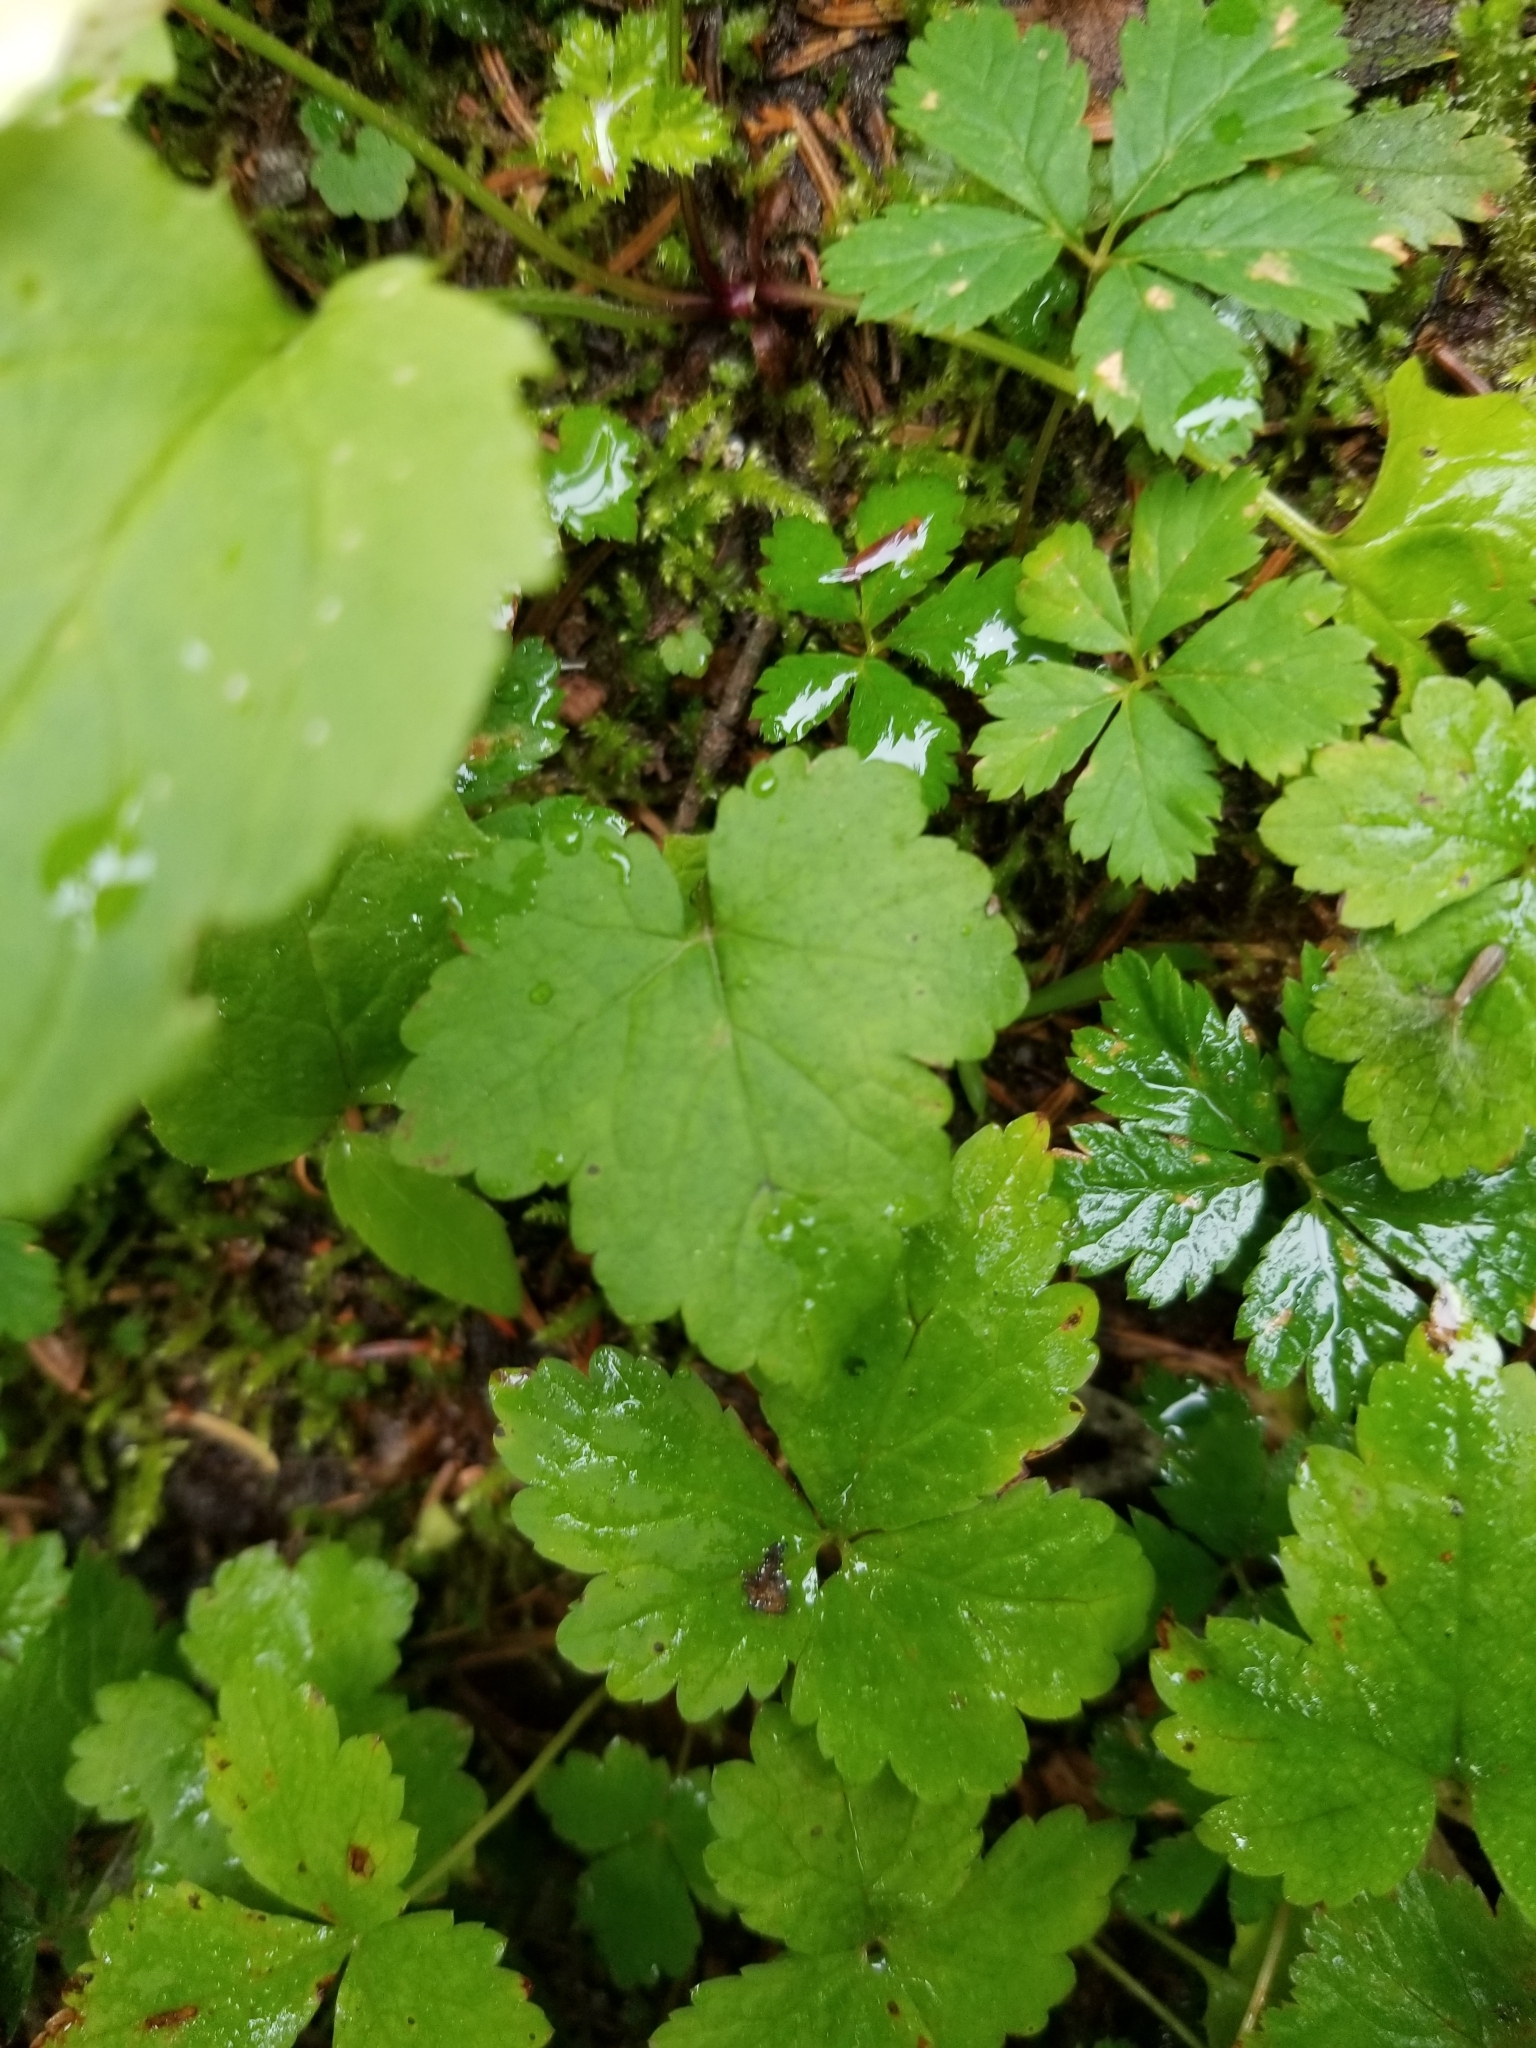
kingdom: Plantae
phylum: Tracheophyta
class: Magnoliopsida
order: Saxifragales
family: Saxifragaceae
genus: Tiarella
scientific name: Tiarella trifoliata
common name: Sugar-scoop
